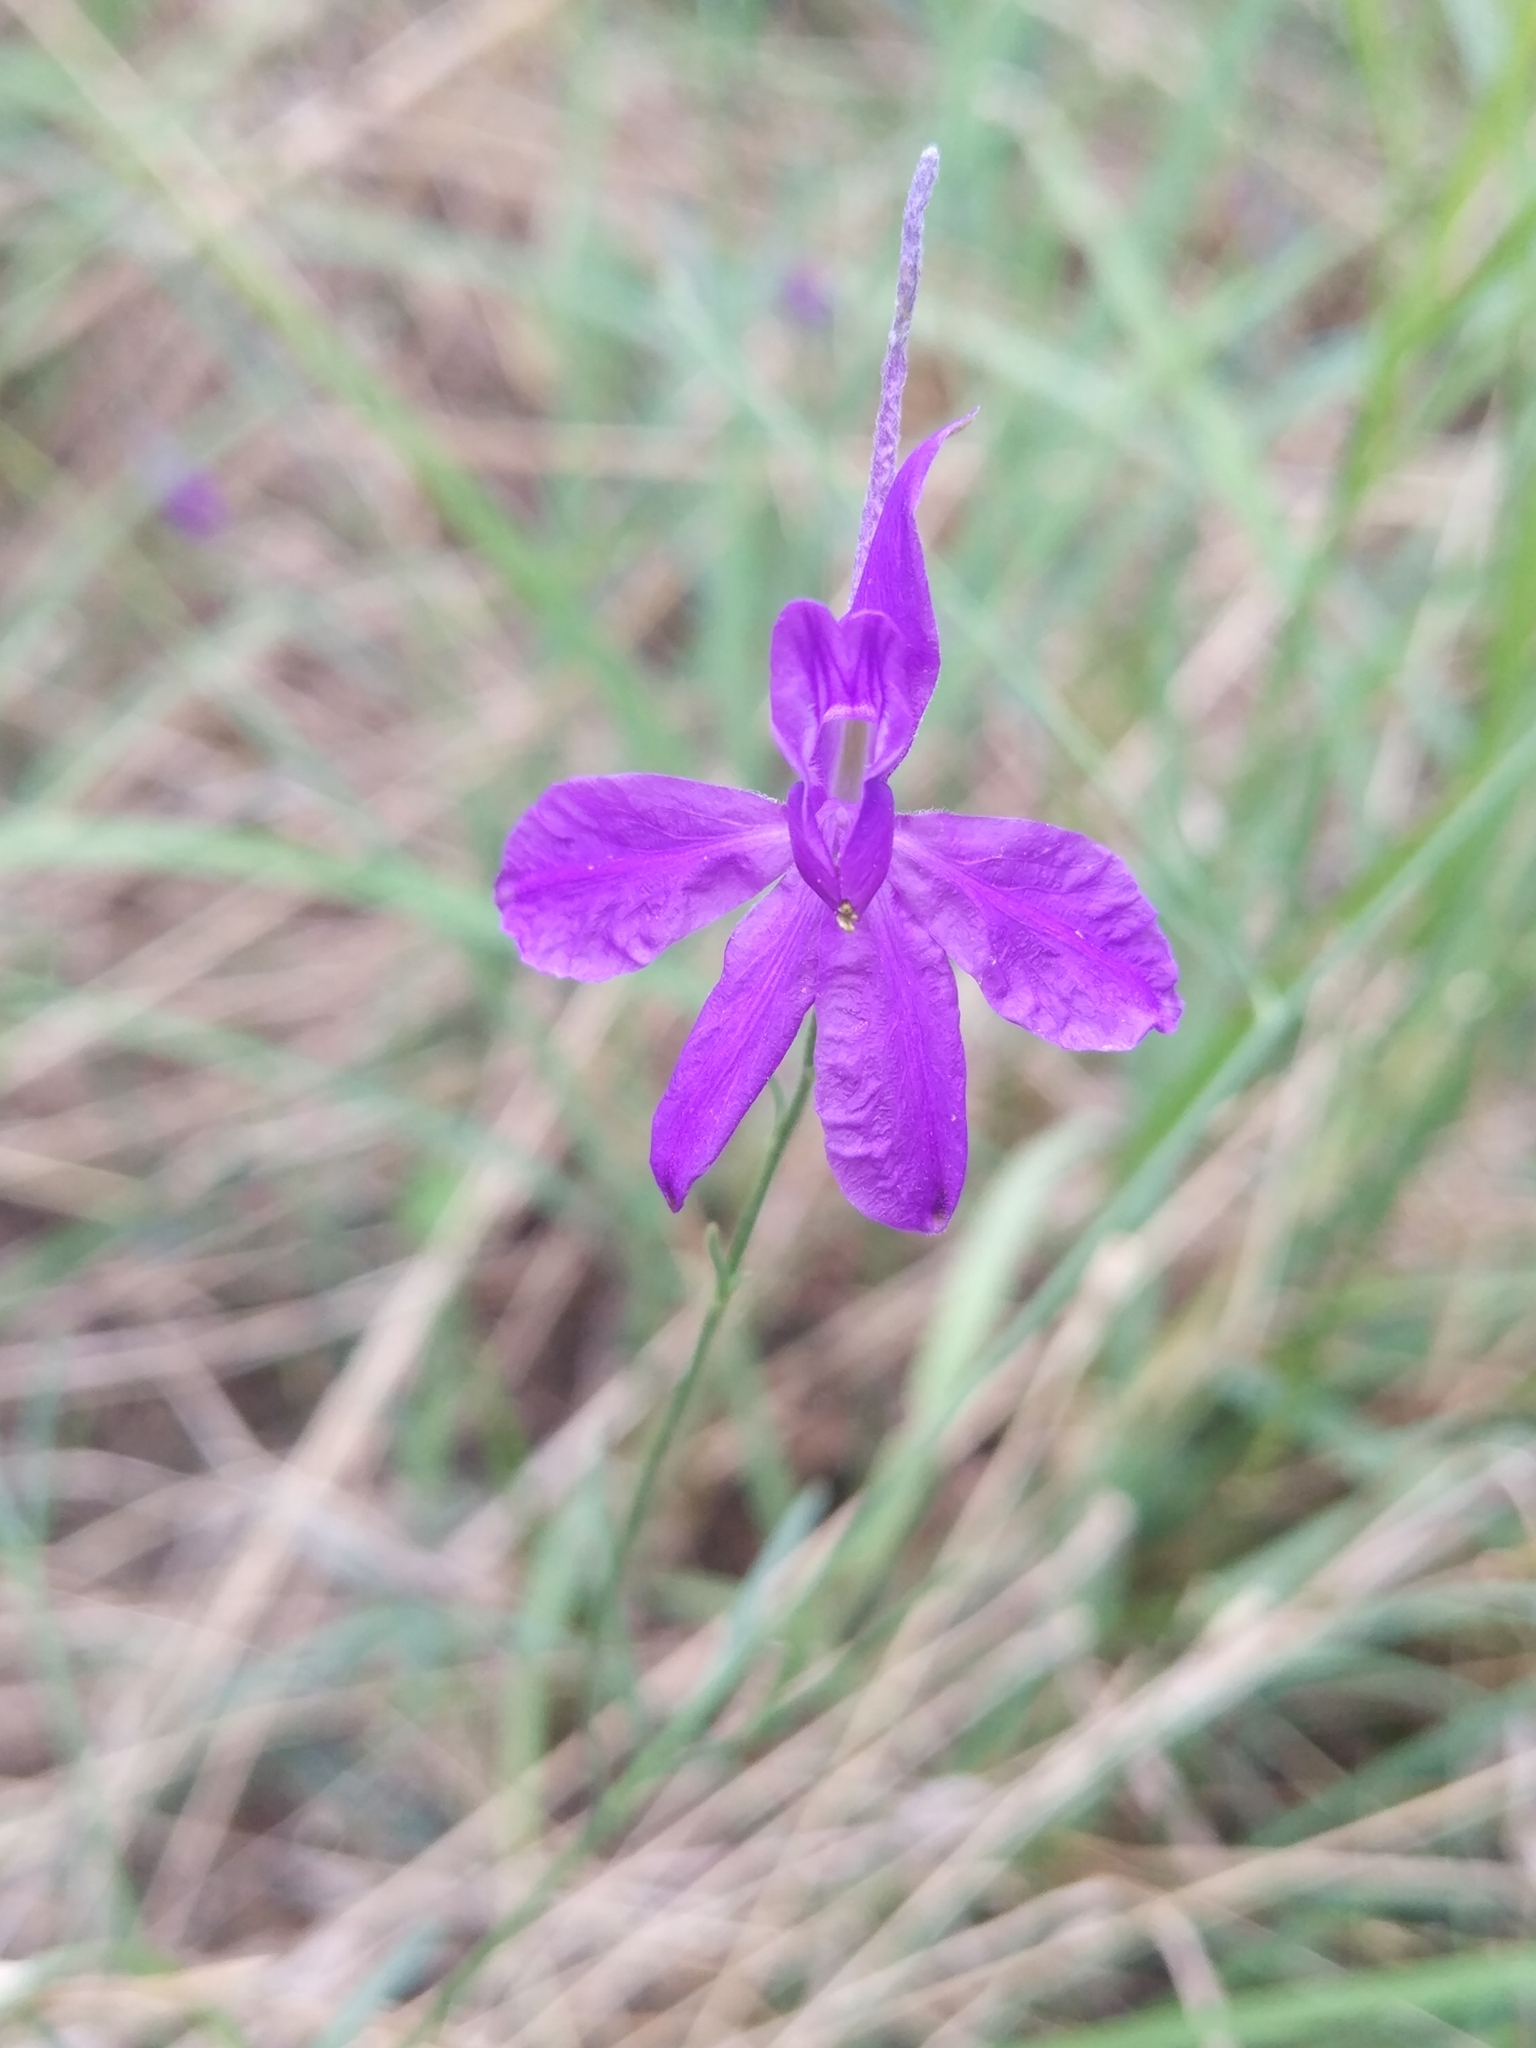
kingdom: Plantae
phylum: Tracheophyta
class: Magnoliopsida
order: Ranunculales
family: Ranunculaceae
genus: Delphinium
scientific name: Delphinium consolida
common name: Branching larkspur
